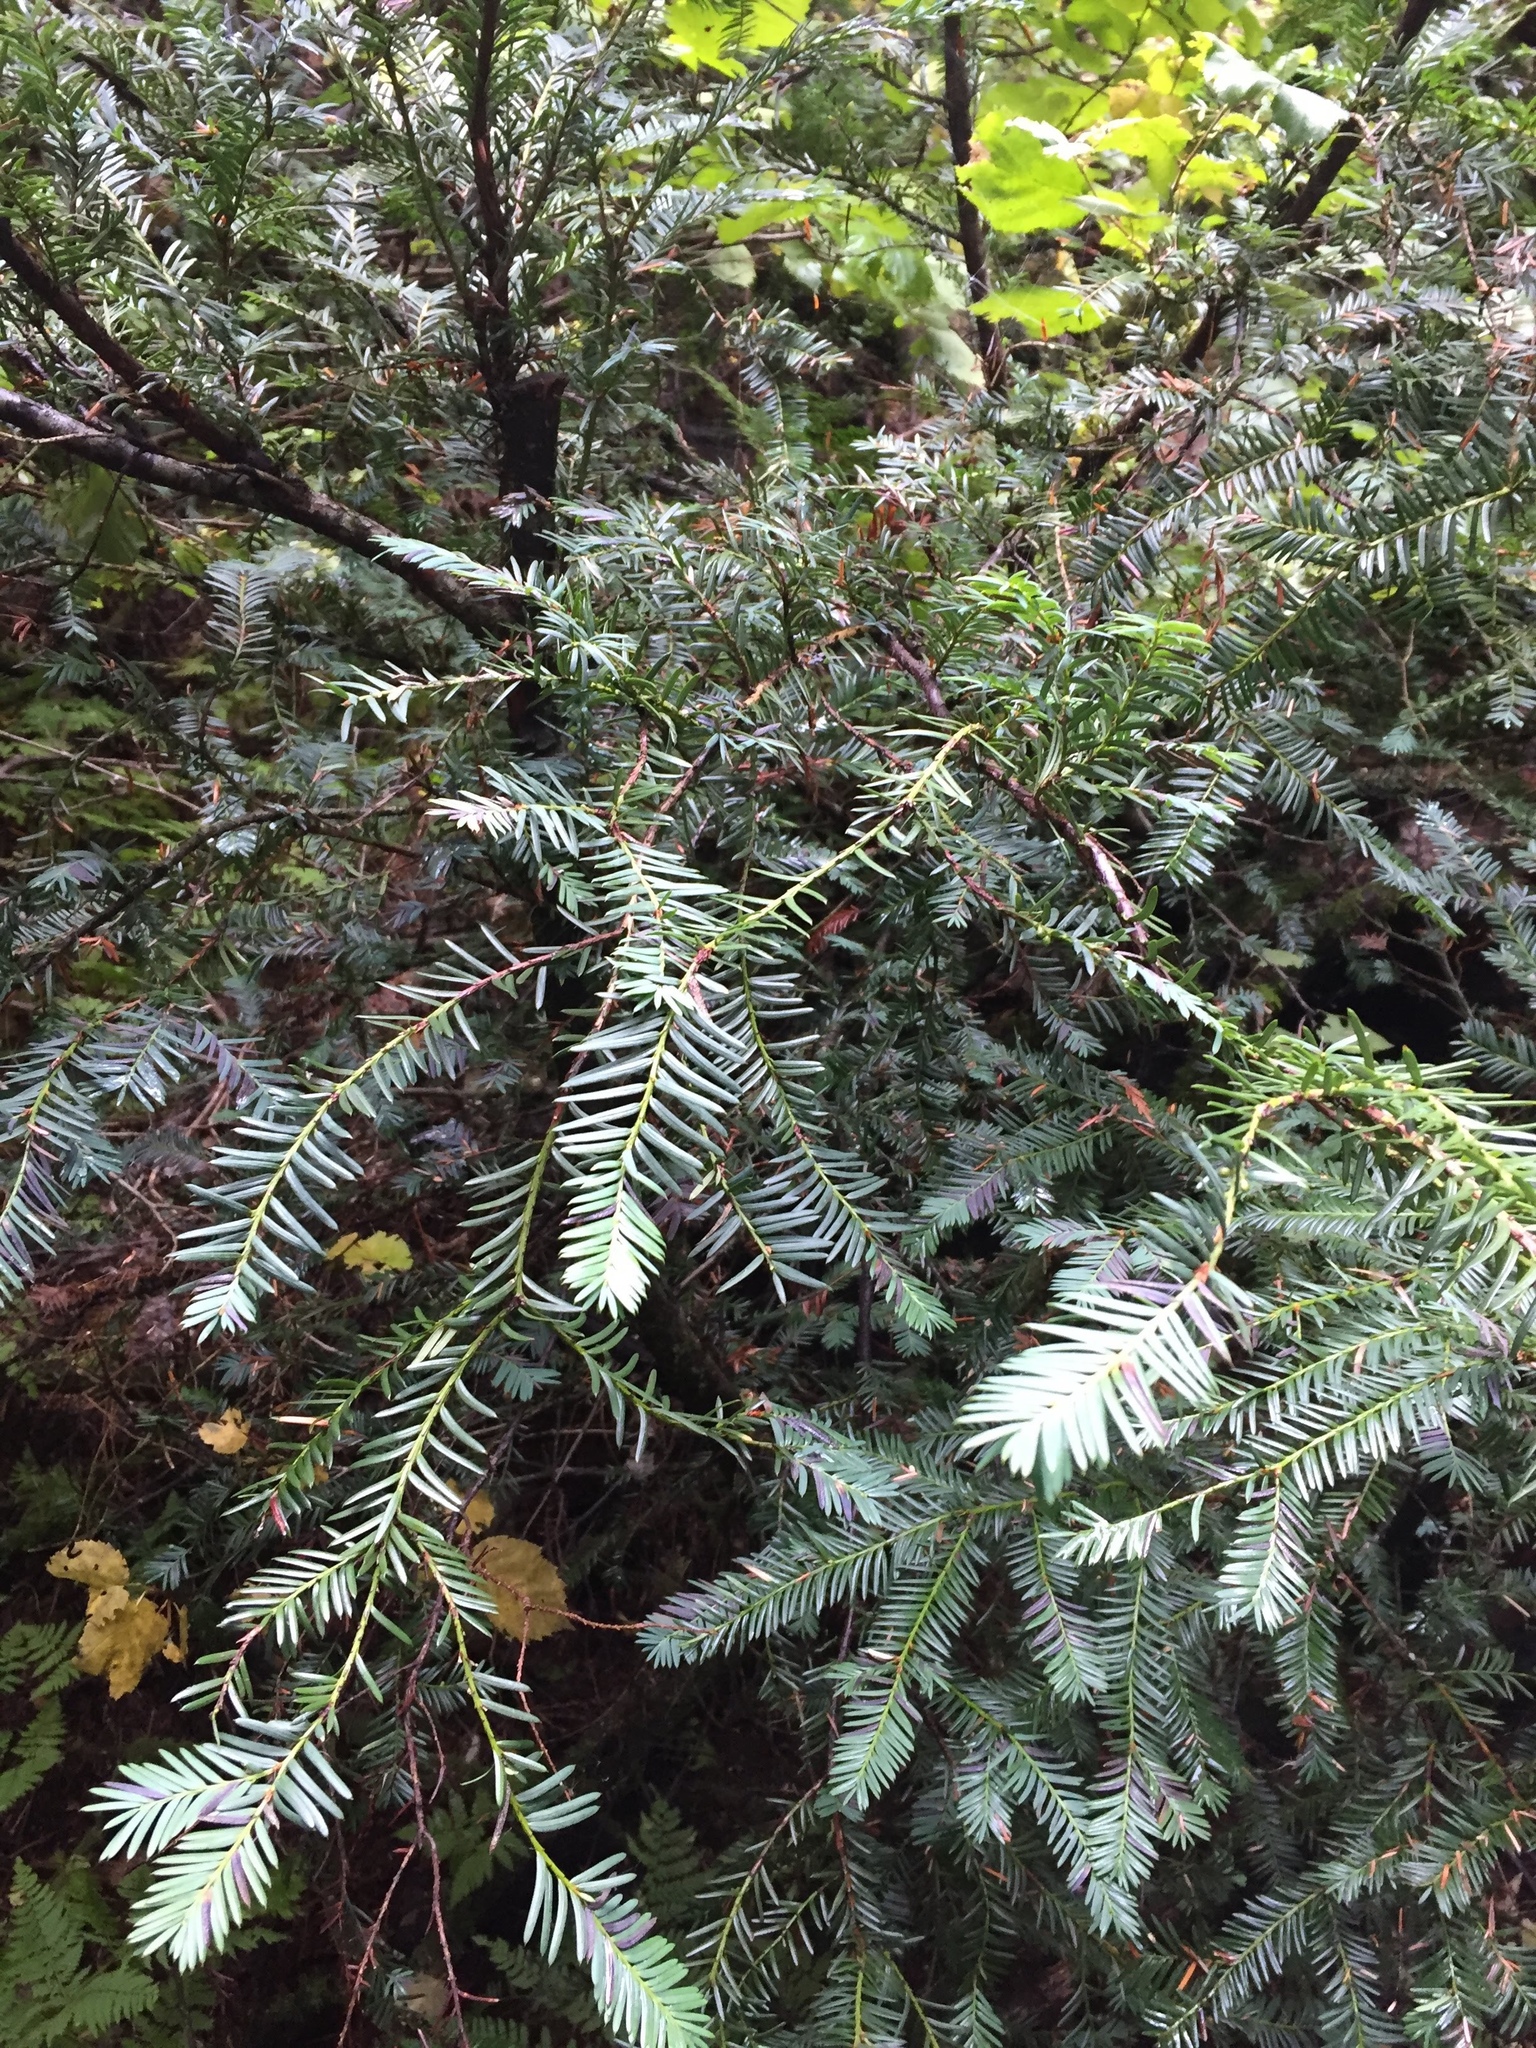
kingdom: Plantae
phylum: Tracheophyta
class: Pinopsida
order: Pinales
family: Taxaceae
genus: Taxus
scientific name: Taxus brevifolia
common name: Pacific yew
